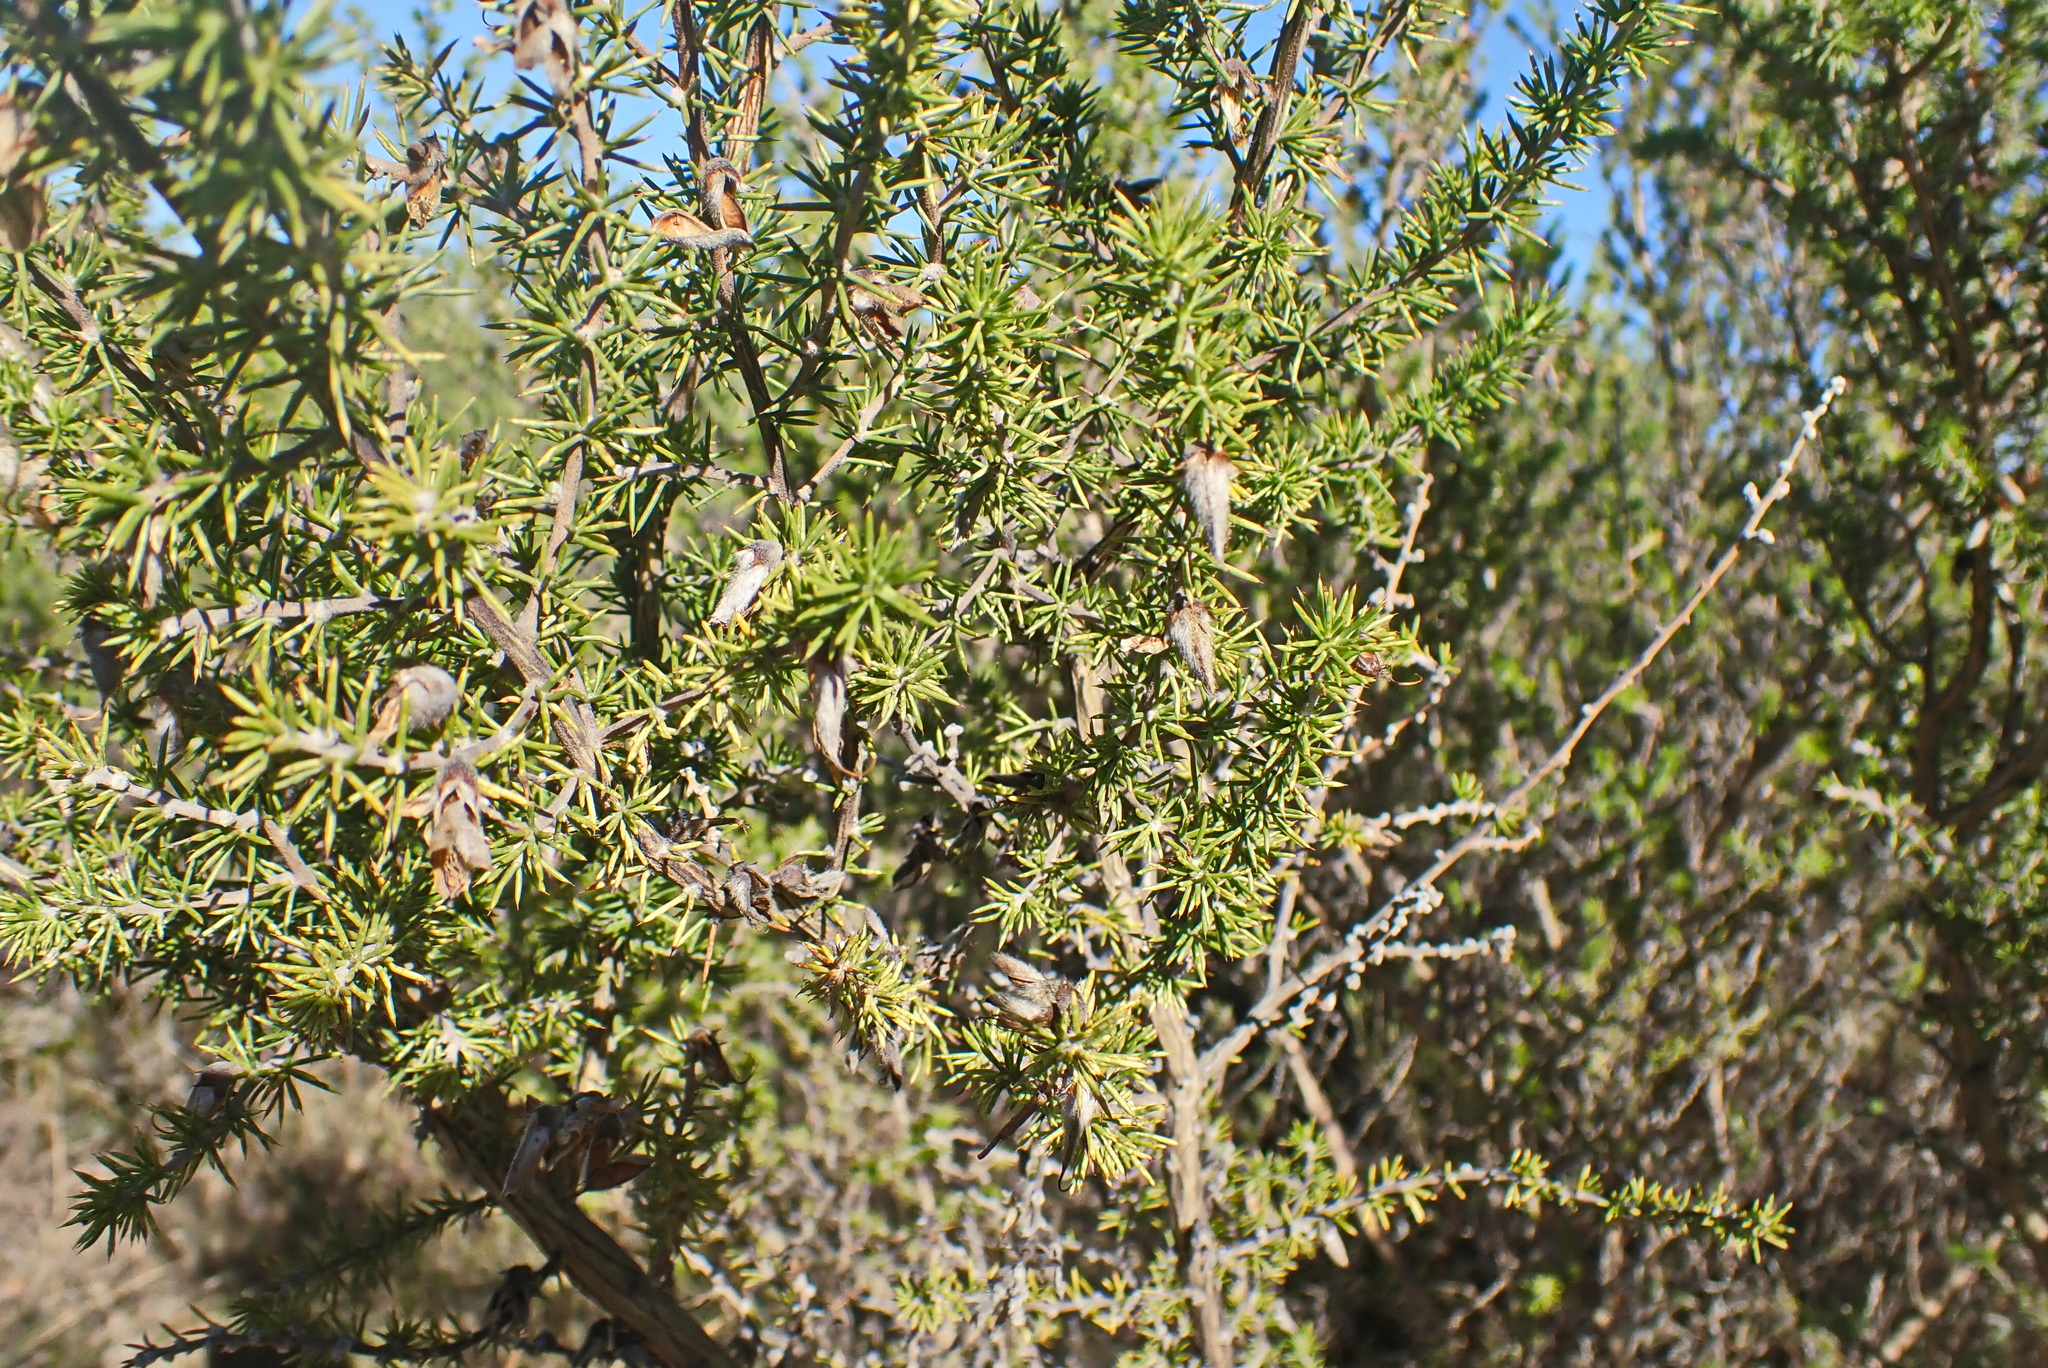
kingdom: Plantae
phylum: Tracheophyta
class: Magnoliopsida
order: Fabales
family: Fabaceae
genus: Aspalathus
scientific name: Aspalathus hirta
